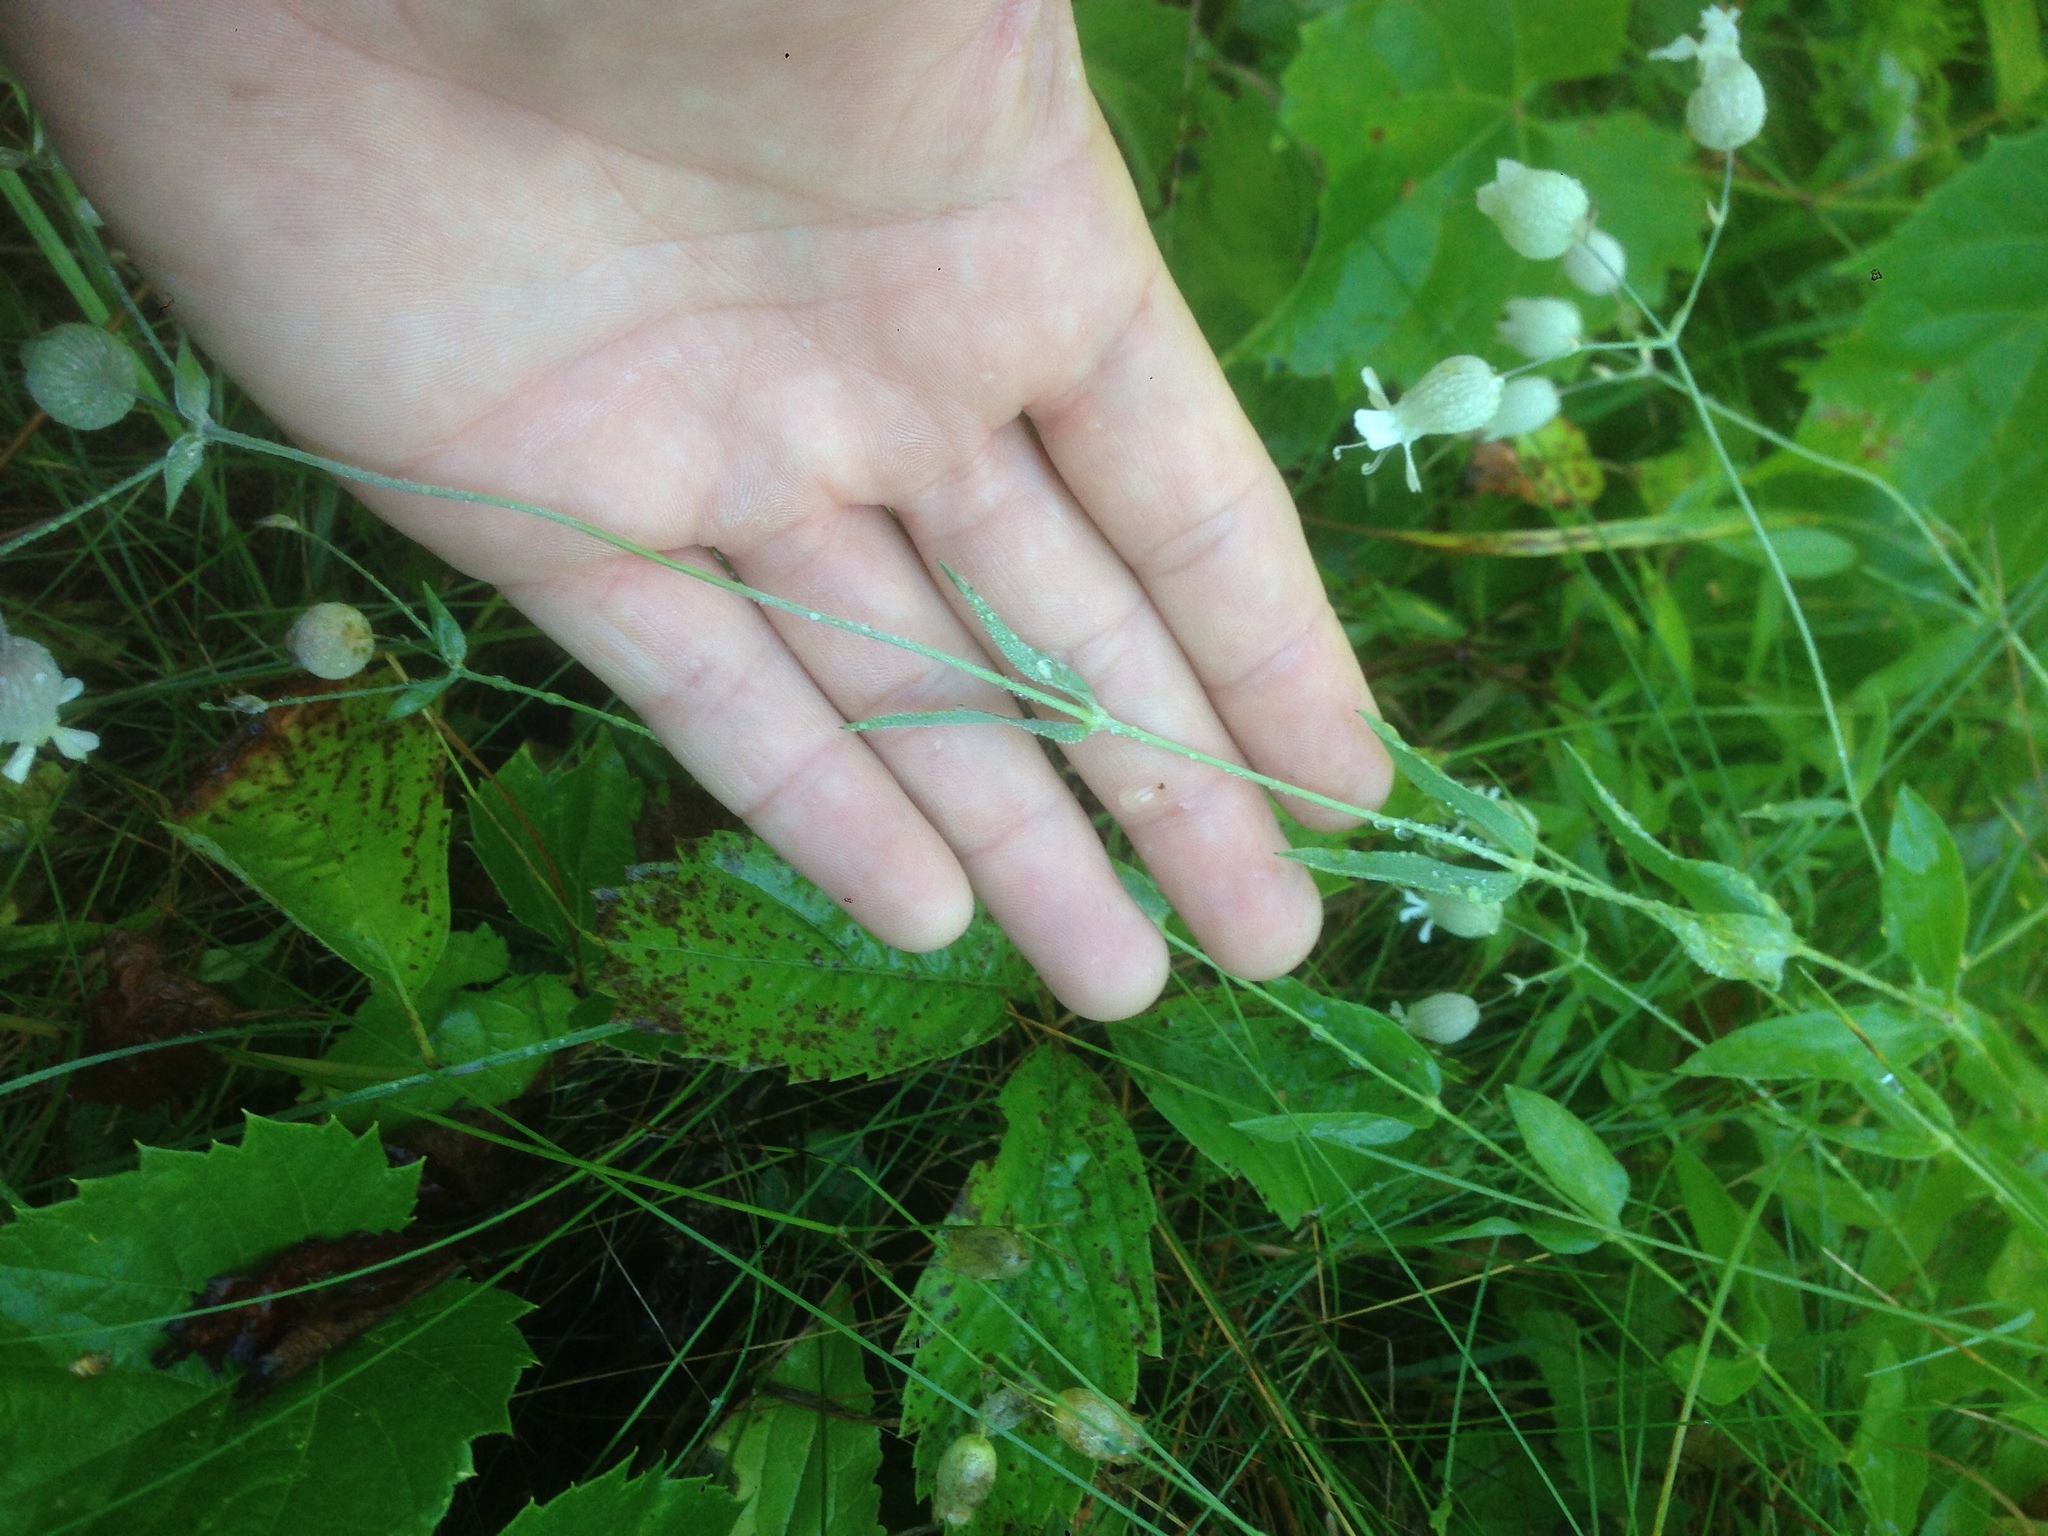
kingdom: Plantae
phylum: Tracheophyta
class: Magnoliopsida
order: Caryophyllales
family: Caryophyllaceae
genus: Silene
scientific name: Silene vulgaris
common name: Bladder campion
